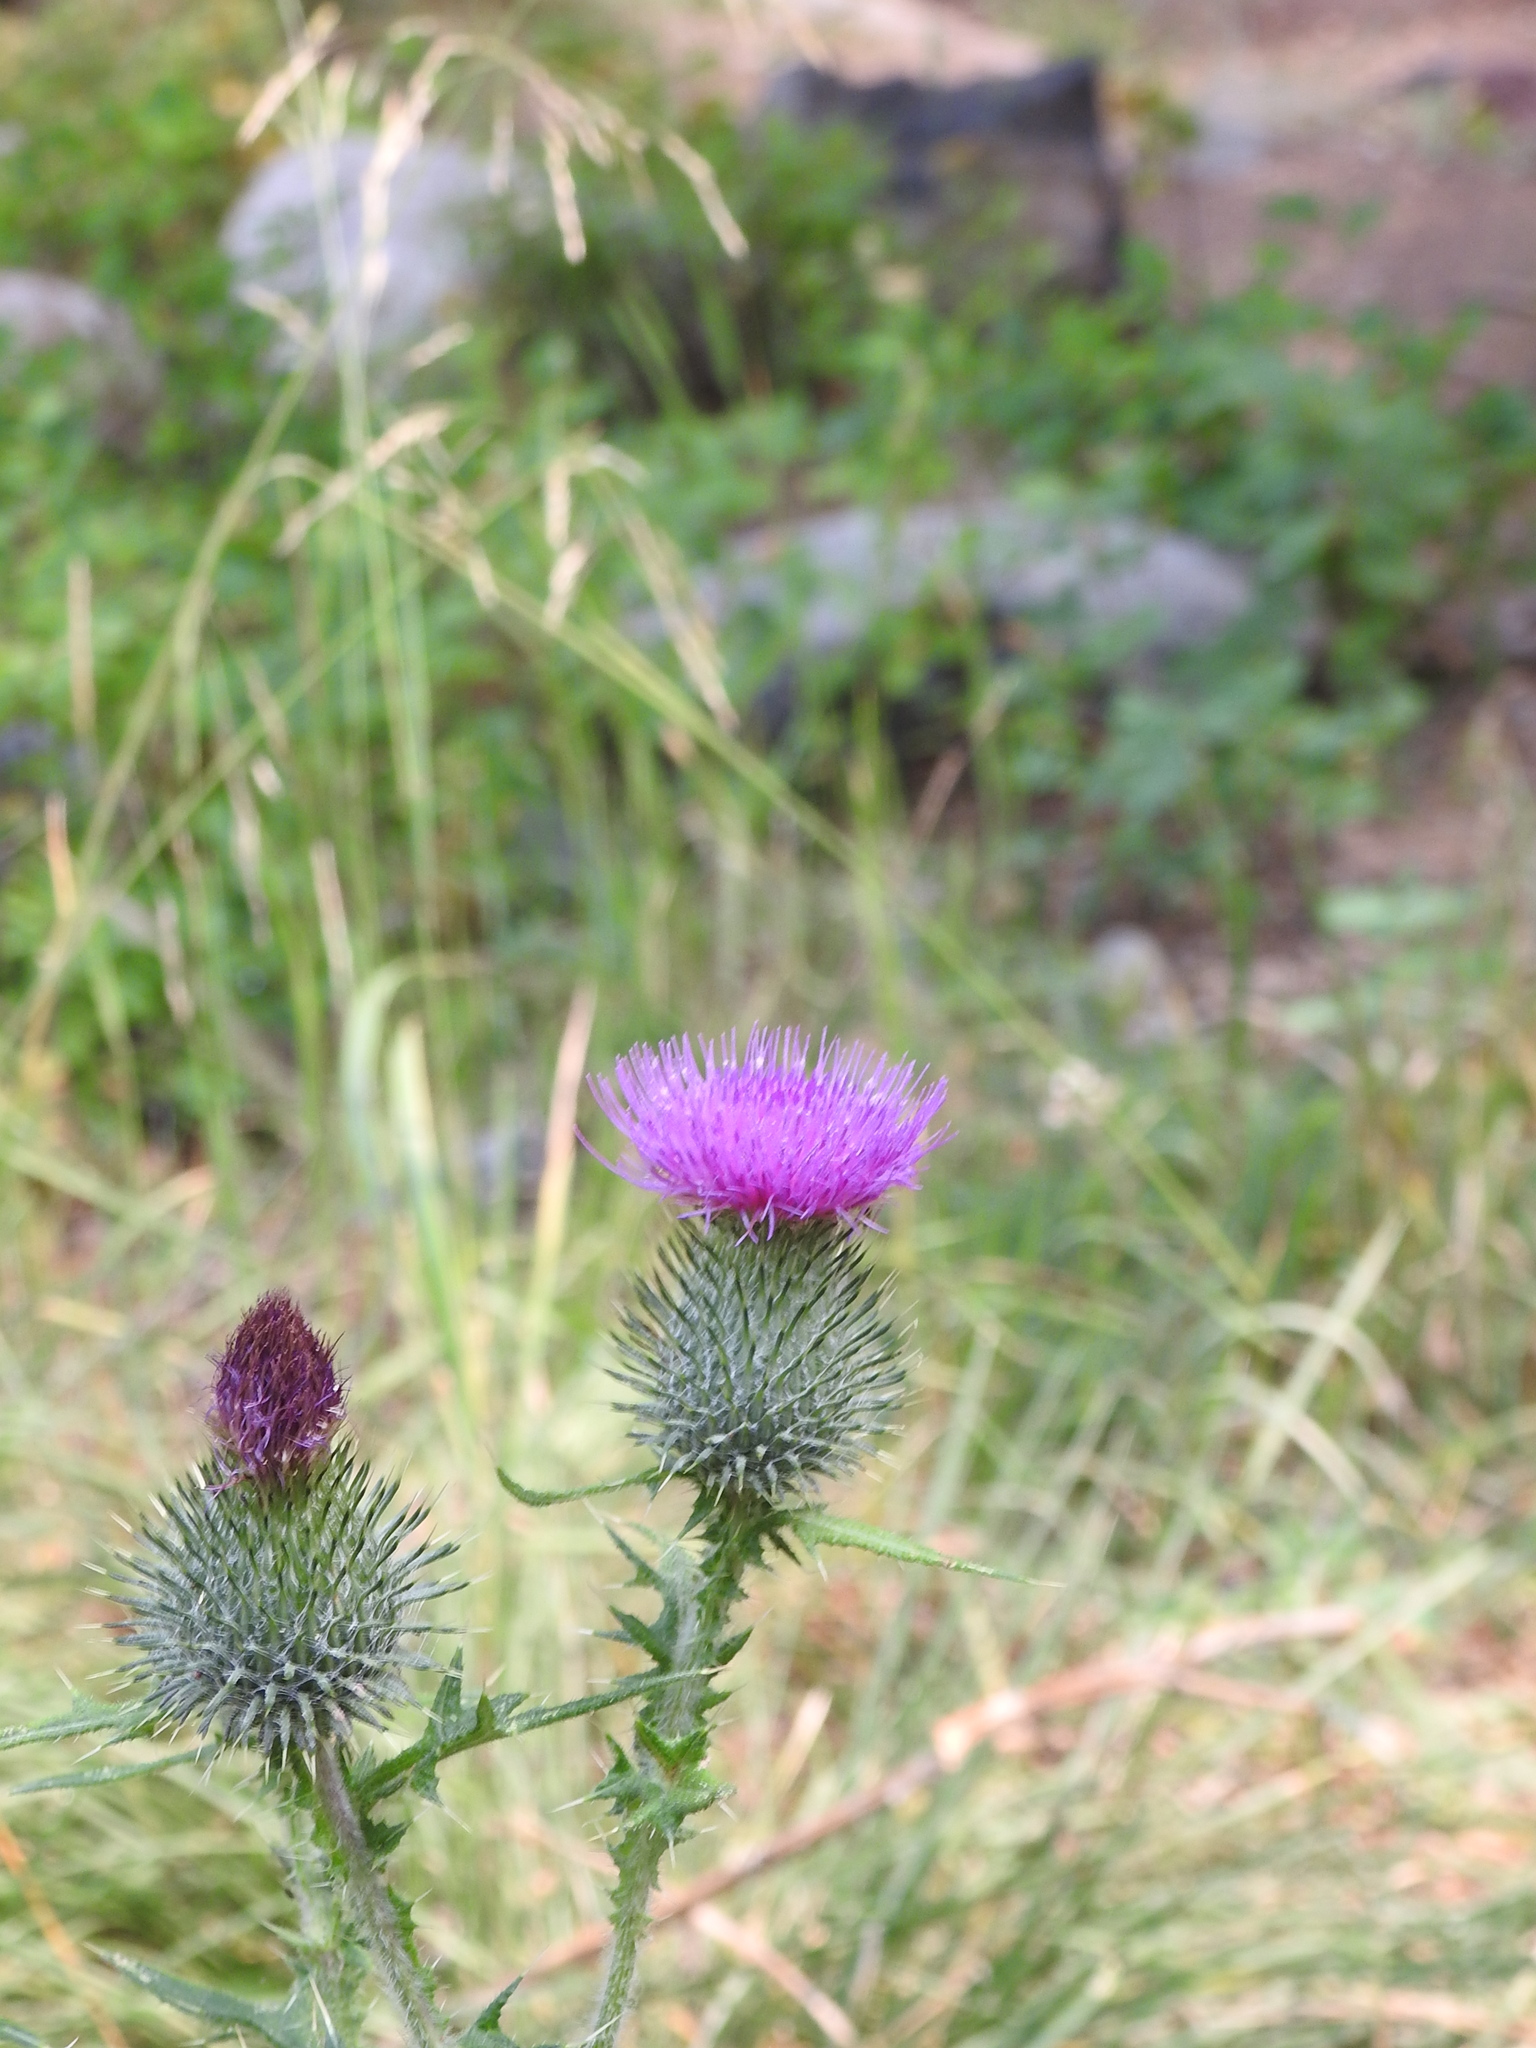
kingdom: Plantae
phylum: Tracheophyta
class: Magnoliopsida
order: Asterales
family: Asteraceae
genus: Cirsium
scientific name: Cirsium vulgare
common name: Bull thistle
